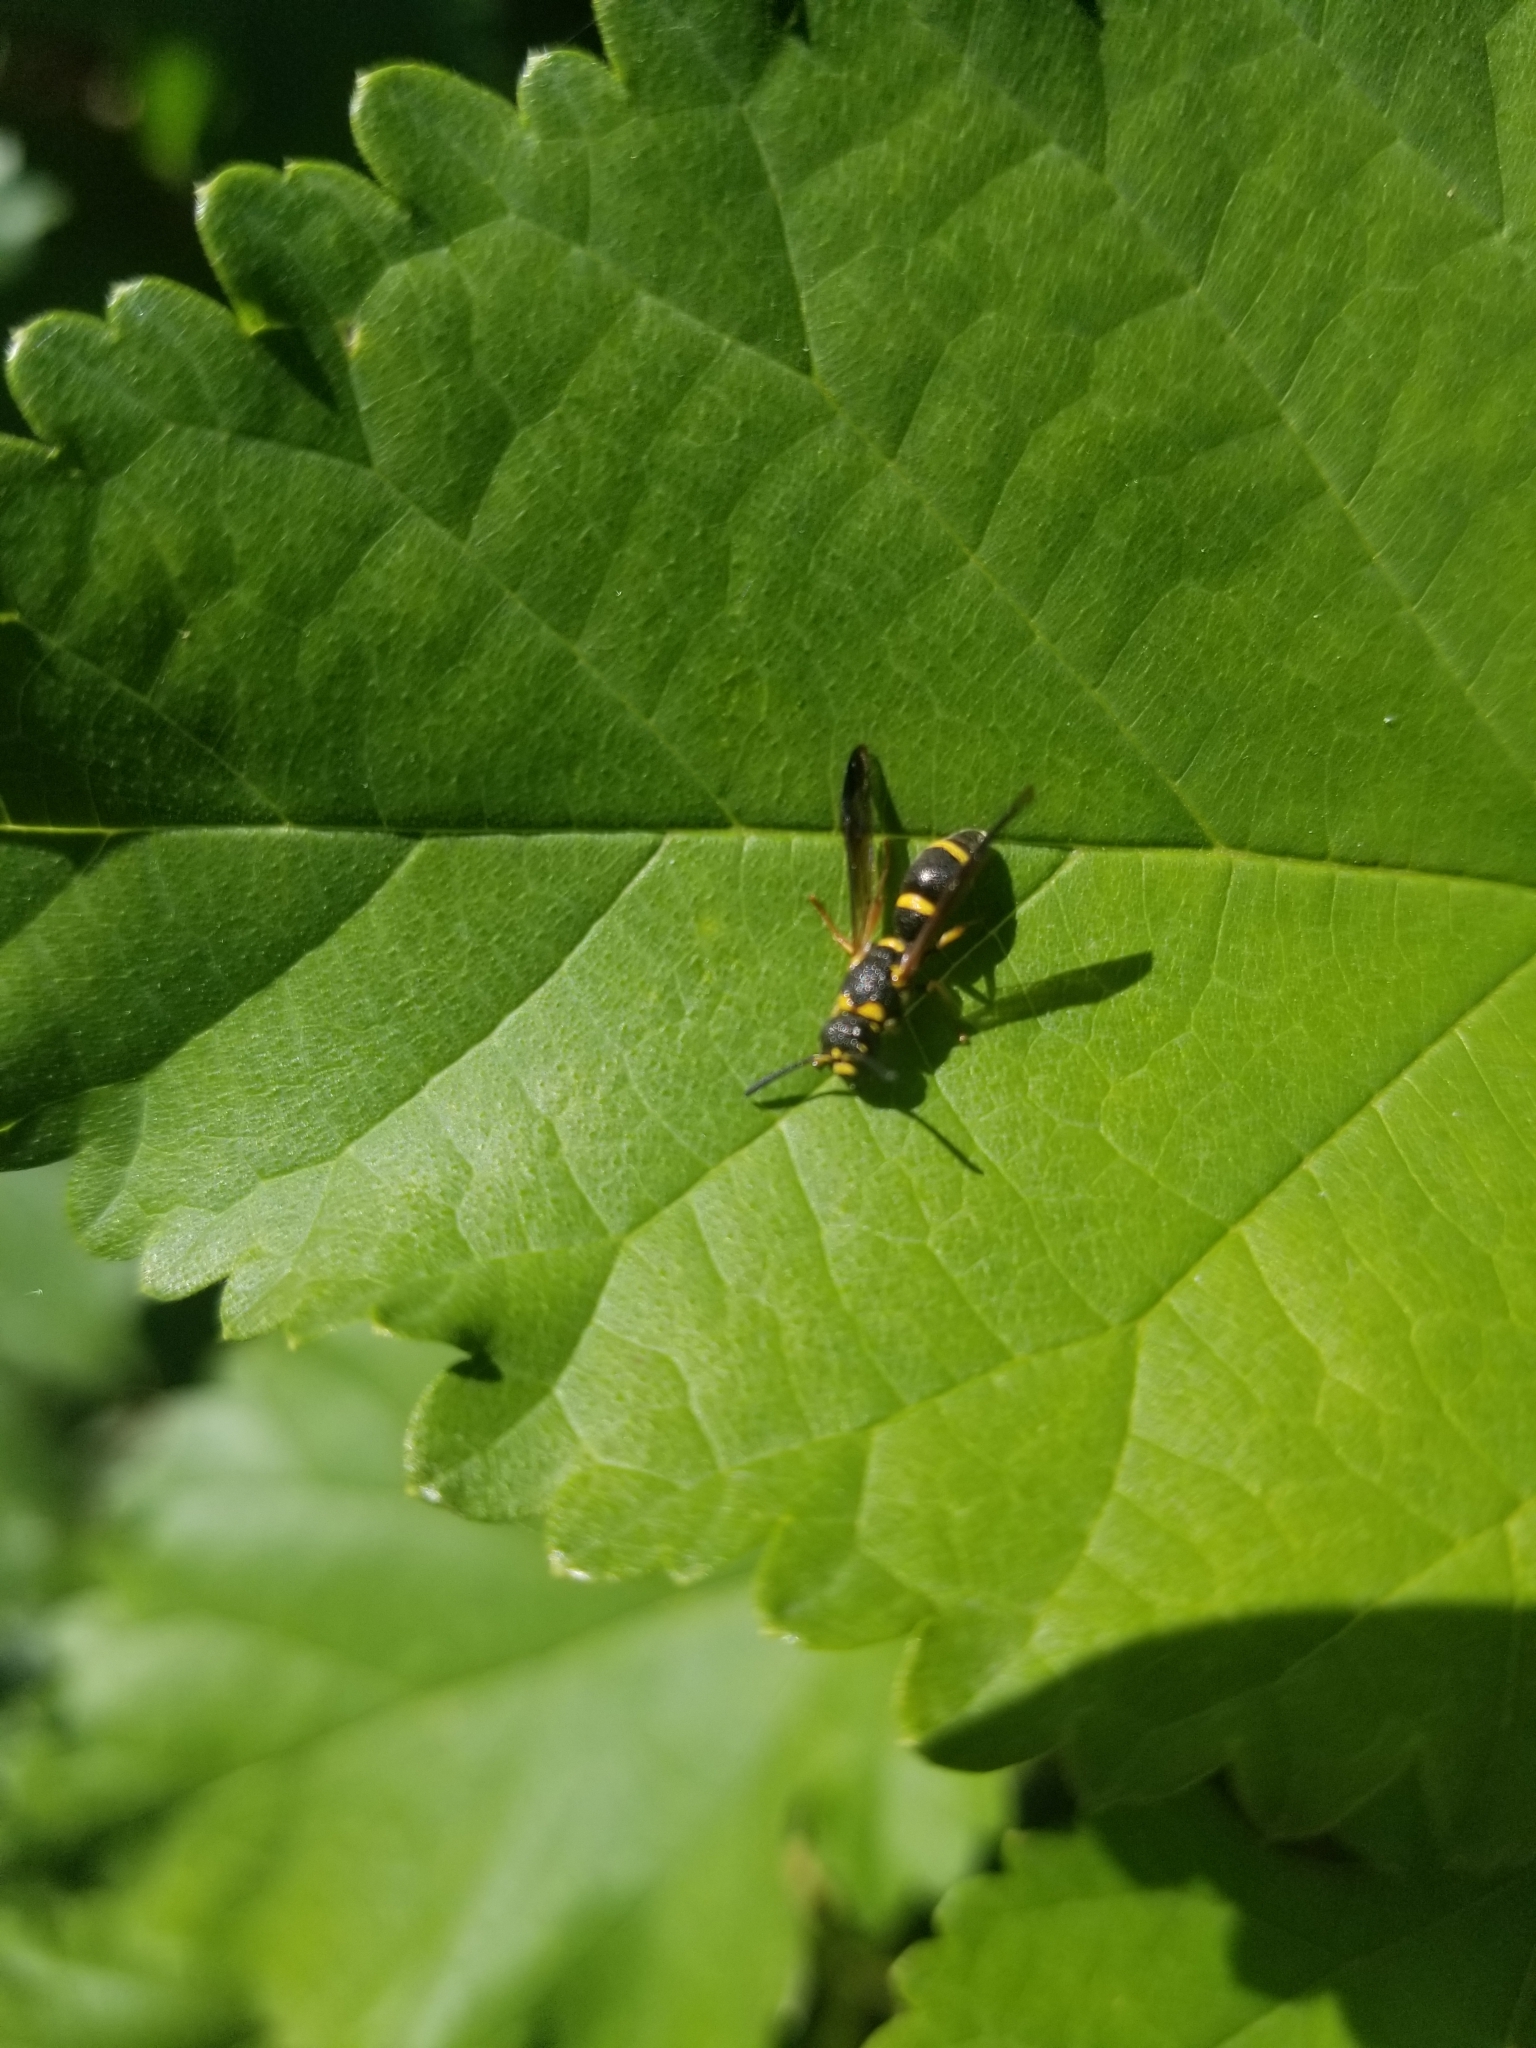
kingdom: Animalia
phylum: Arthropoda
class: Insecta
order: Hymenoptera
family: Eumenidae
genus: Parancistrocerus
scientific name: Parancistrocerus perennis
